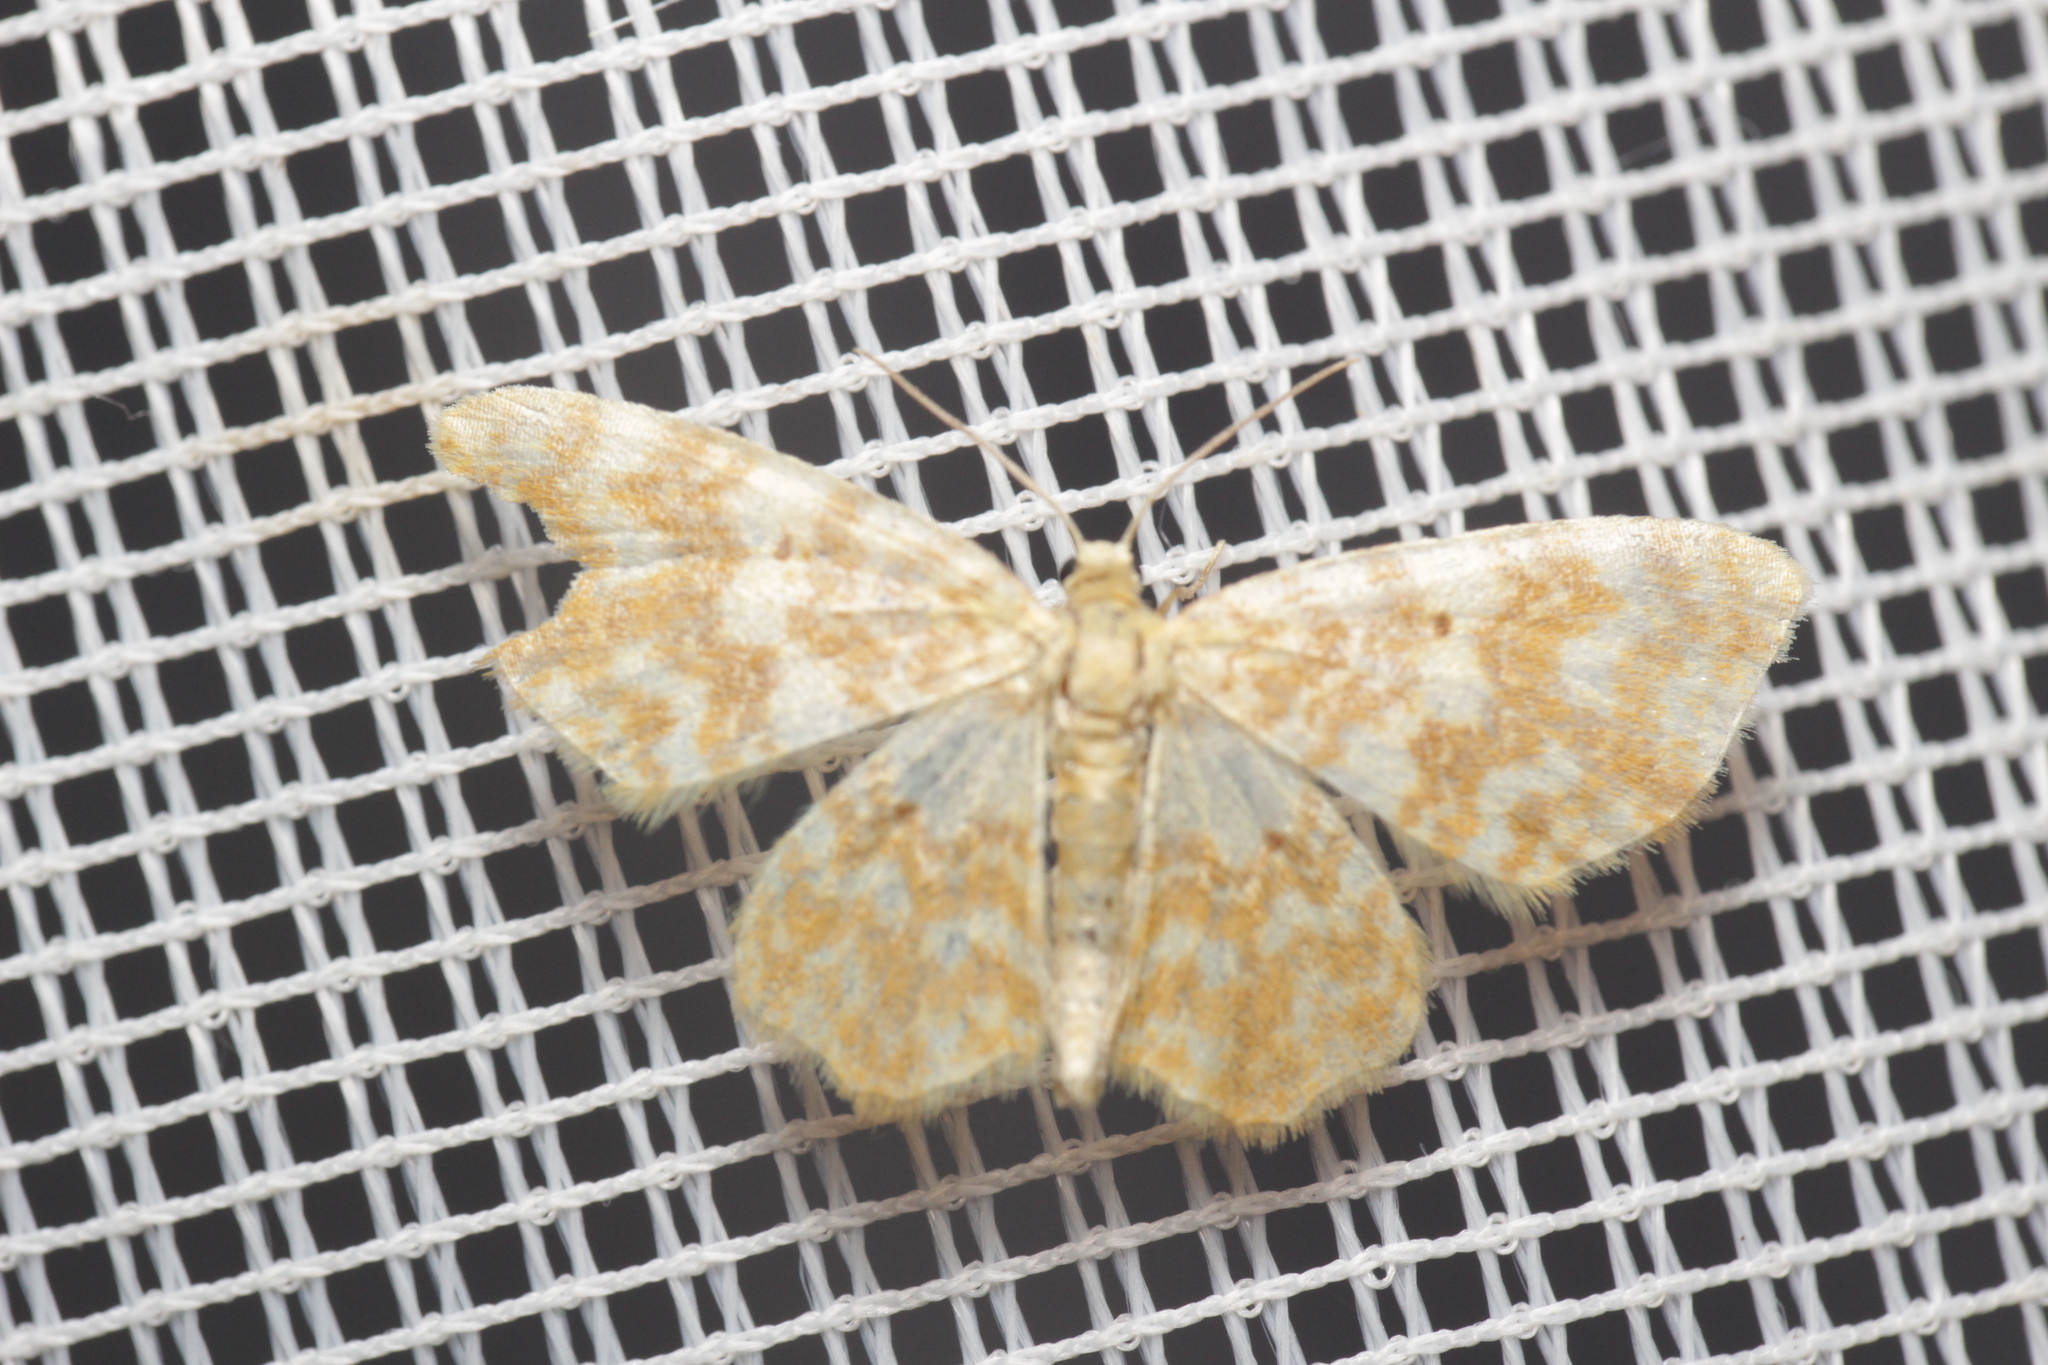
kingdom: Animalia
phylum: Arthropoda
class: Insecta
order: Lepidoptera
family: Geometridae
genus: Hydrelia
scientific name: Hydrelia flammeolaria
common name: Small yellow wave
